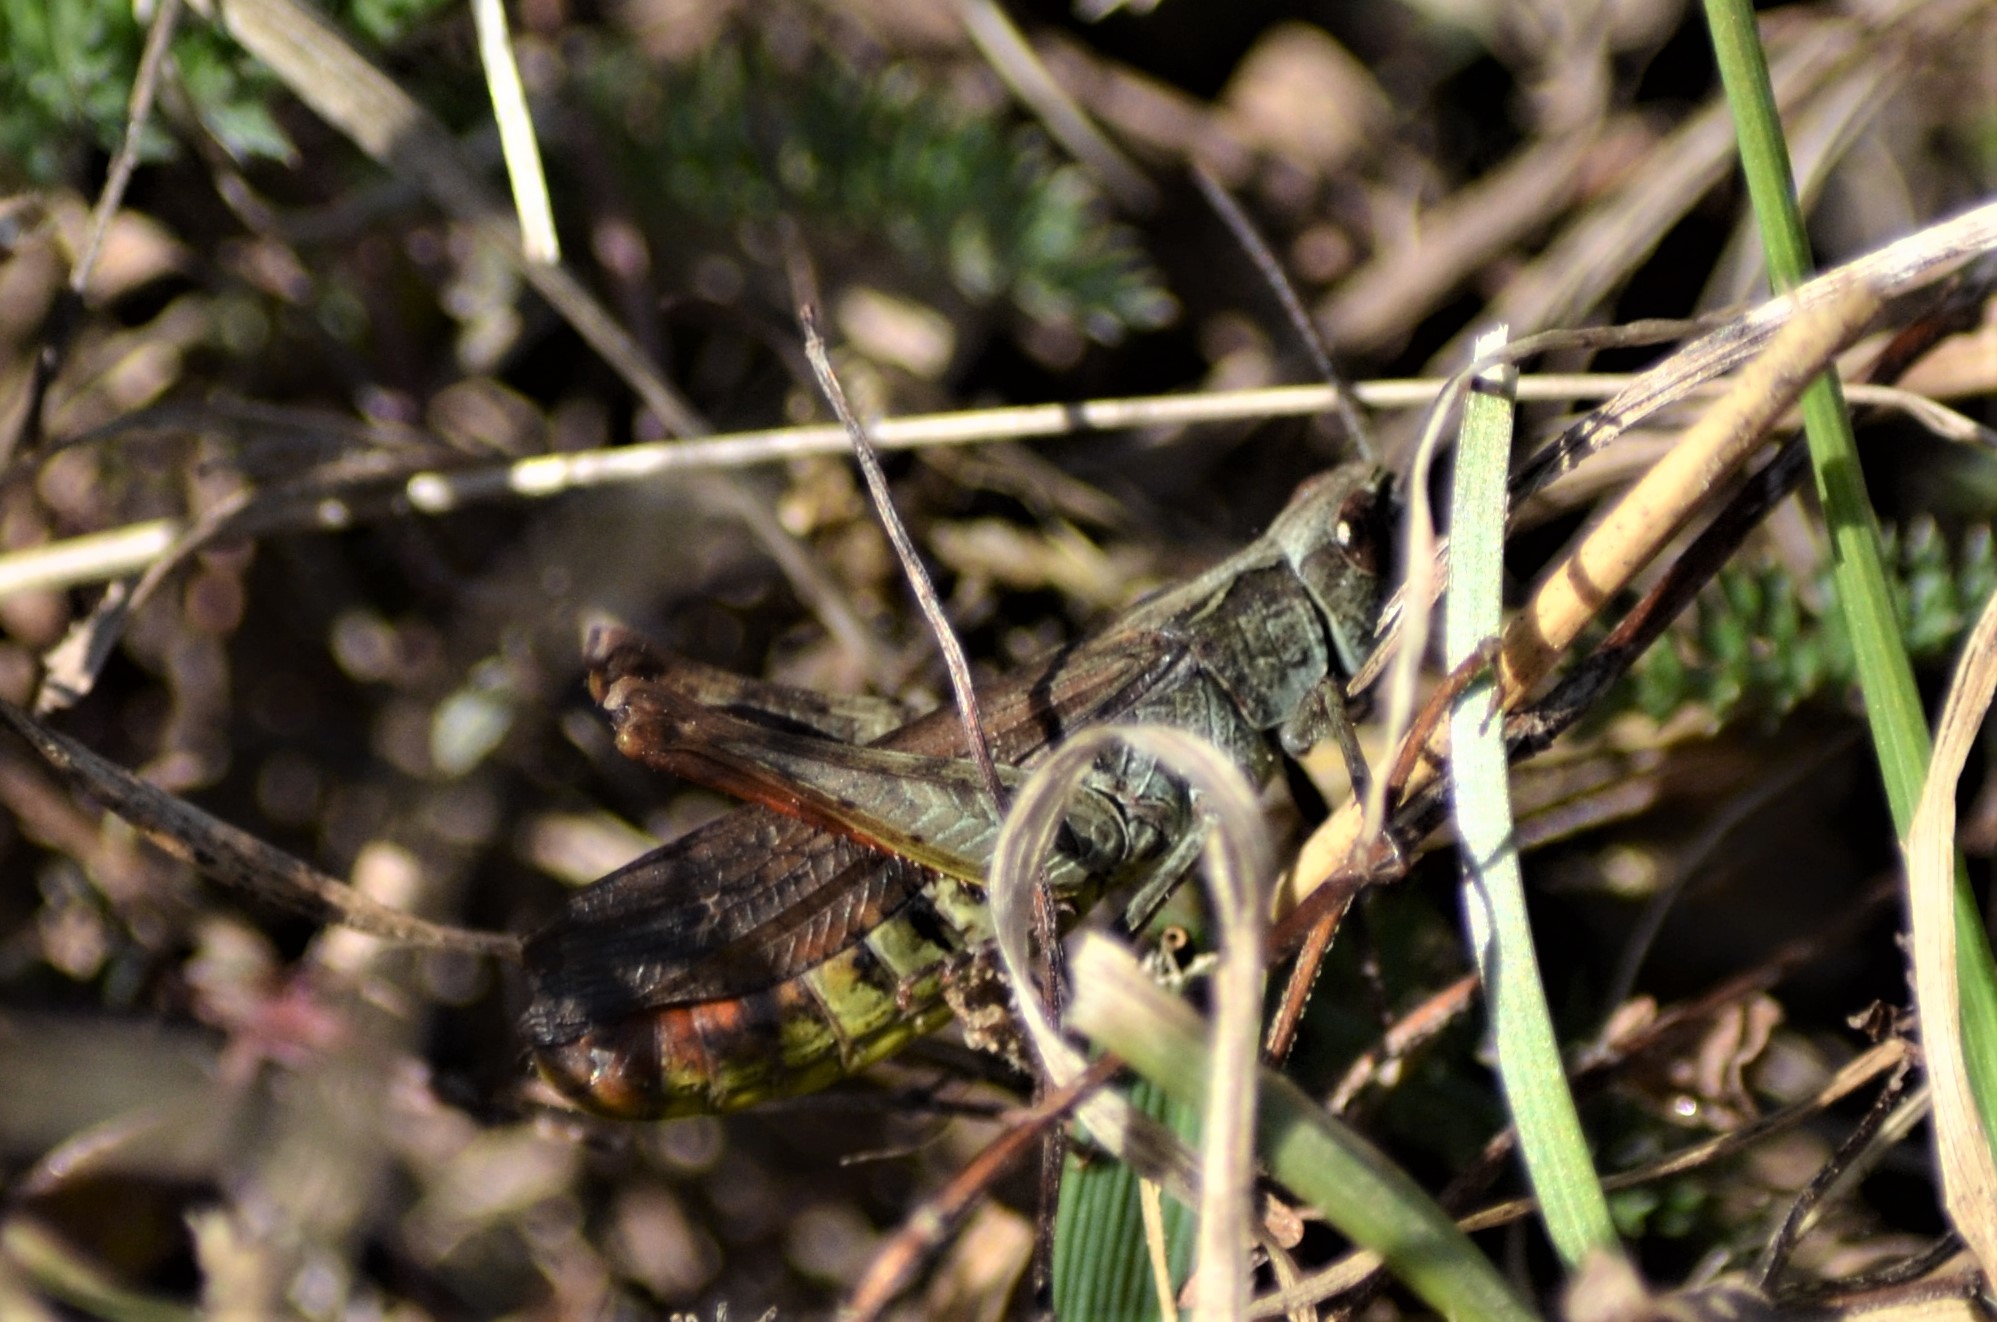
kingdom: Animalia
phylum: Arthropoda
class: Insecta
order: Orthoptera
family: Acrididae
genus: Chorthippus
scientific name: Chorthippus biguttulus
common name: Bow-winged grasshopper
